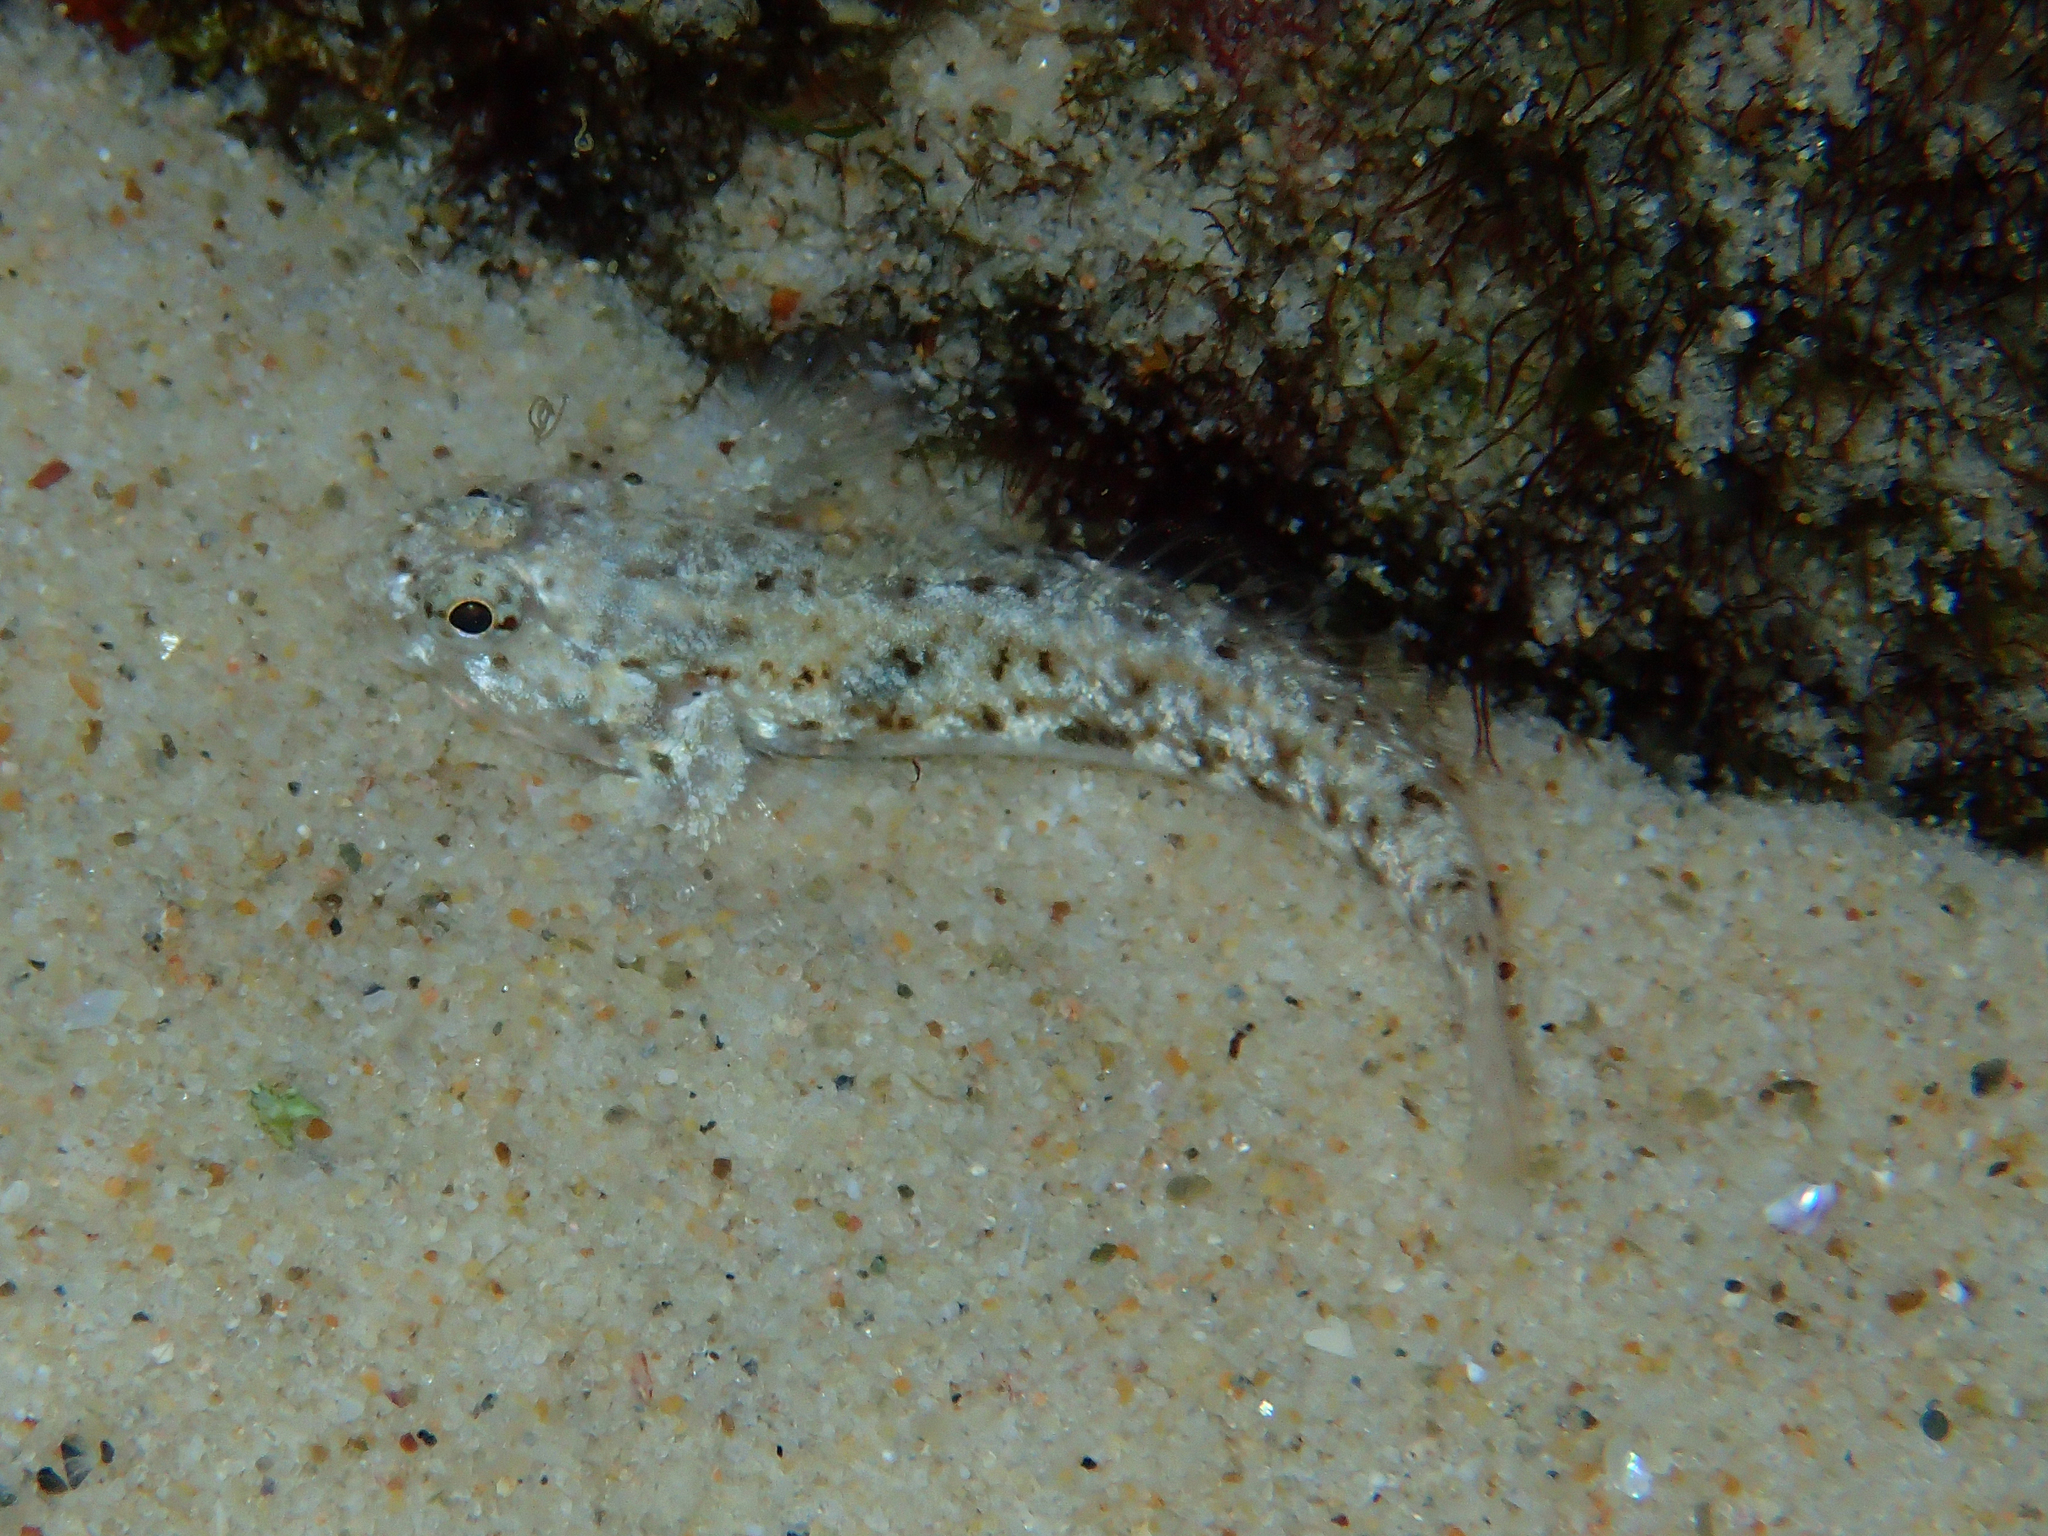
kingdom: Animalia
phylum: Chordata
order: Perciformes
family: Gobiidae
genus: Bathygobius
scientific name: Bathygobius cocosensis
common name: Cocos frillgoby
